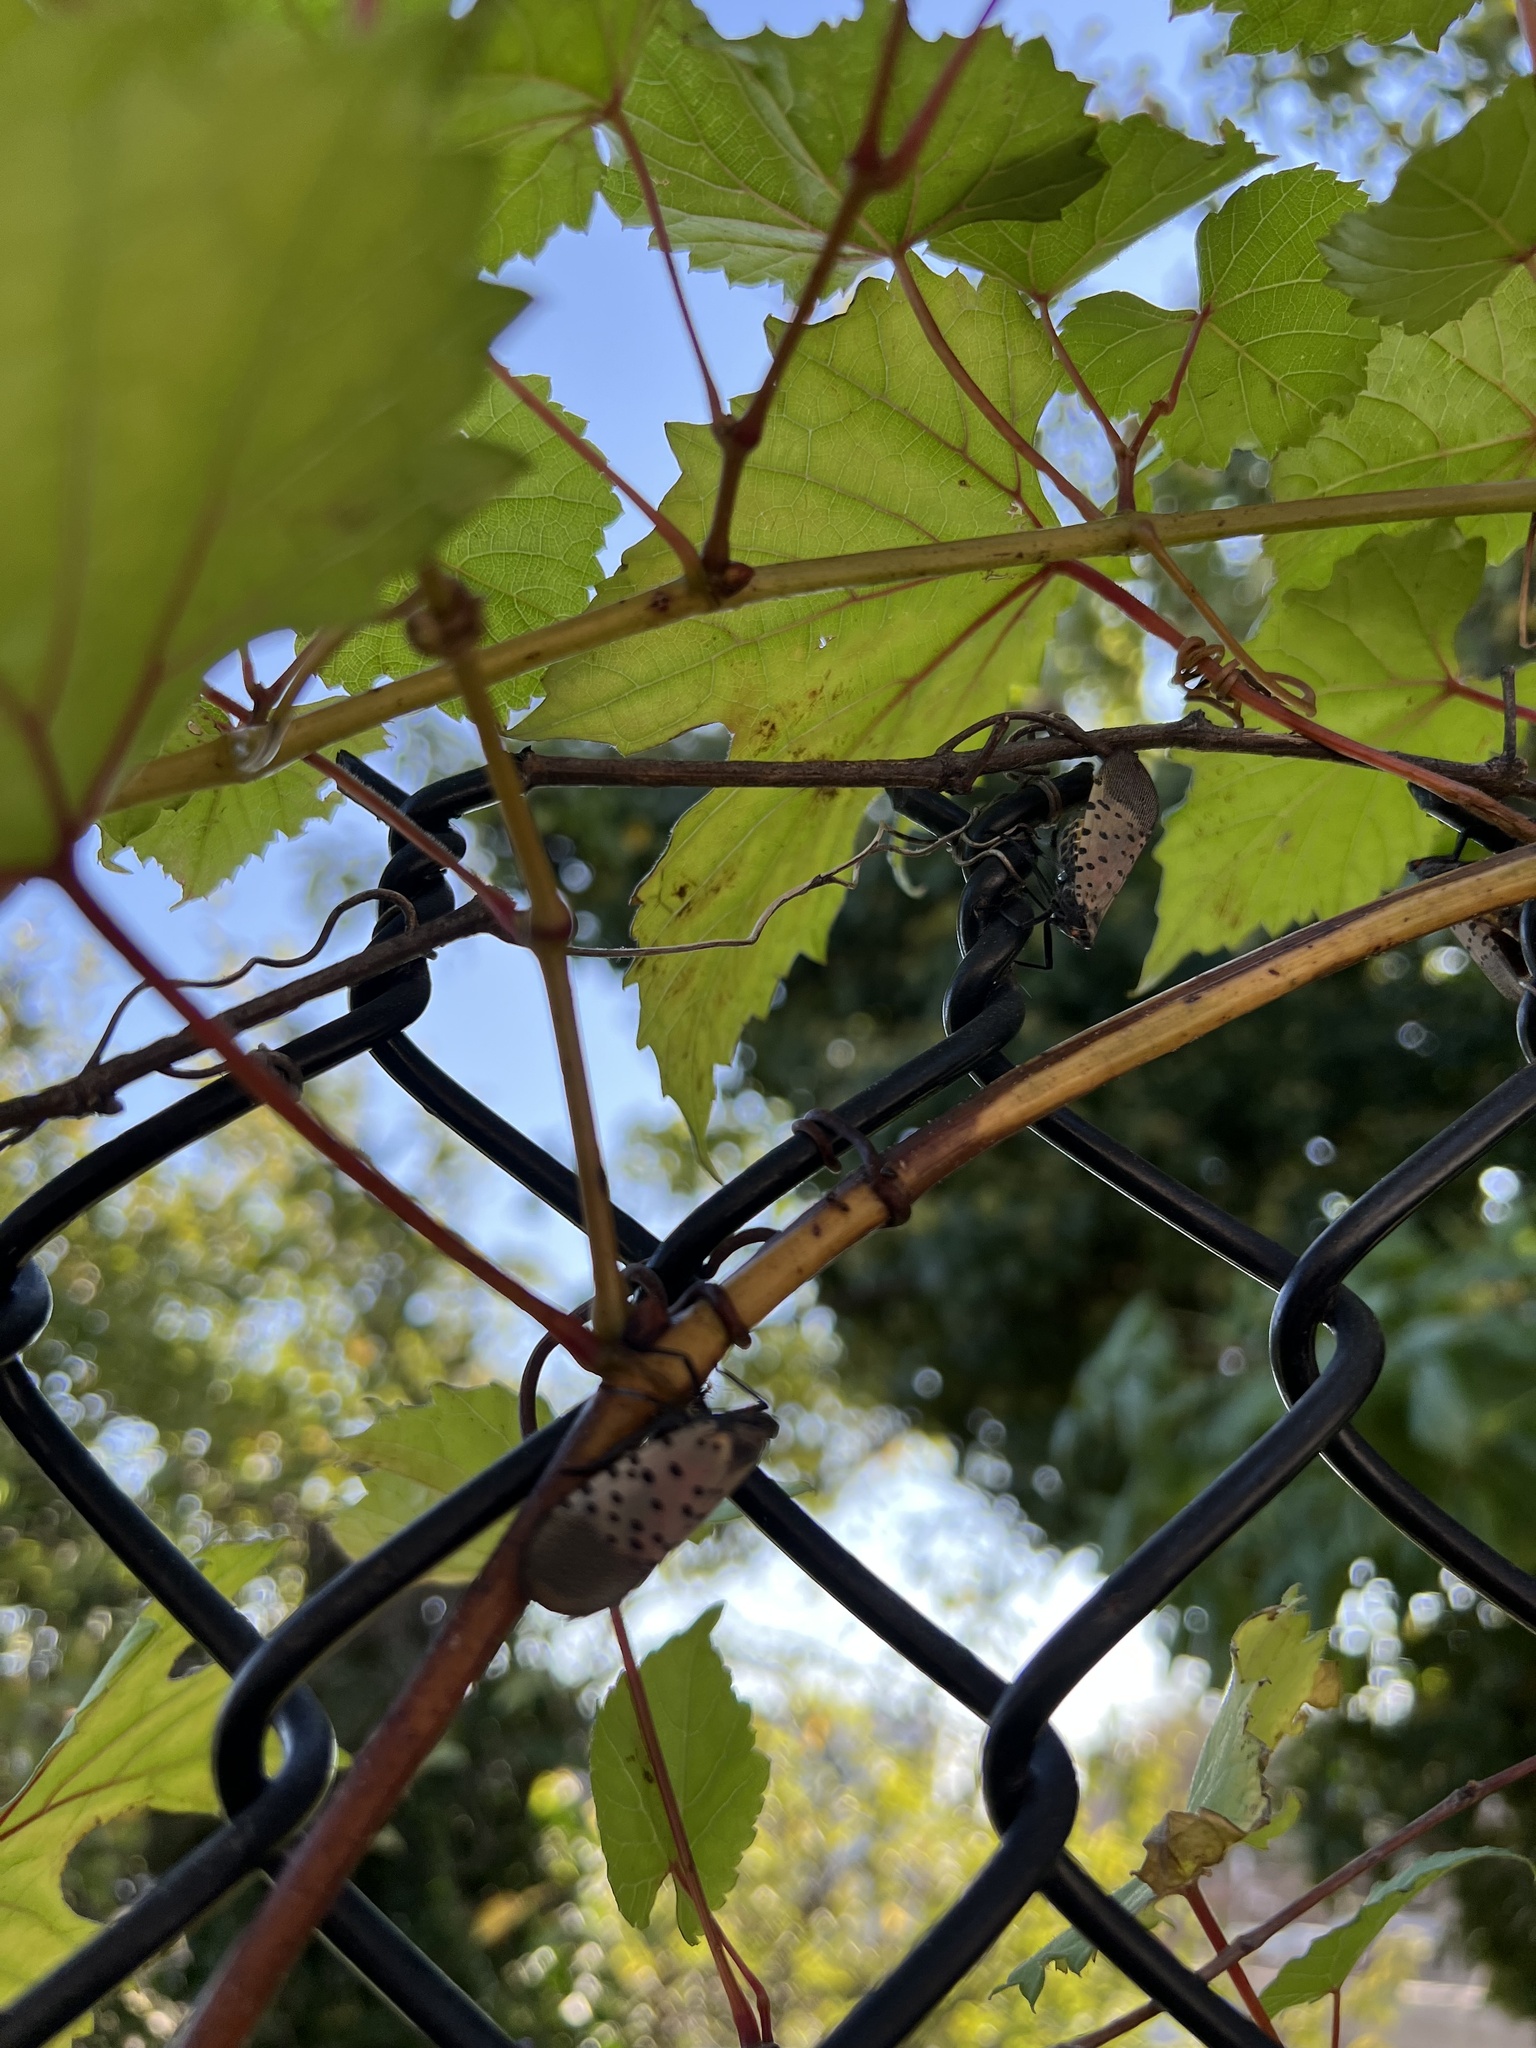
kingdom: Animalia
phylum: Arthropoda
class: Insecta
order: Hemiptera
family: Fulgoridae
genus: Lycorma
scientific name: Lycorma delicatula
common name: Spotted lanternfly
